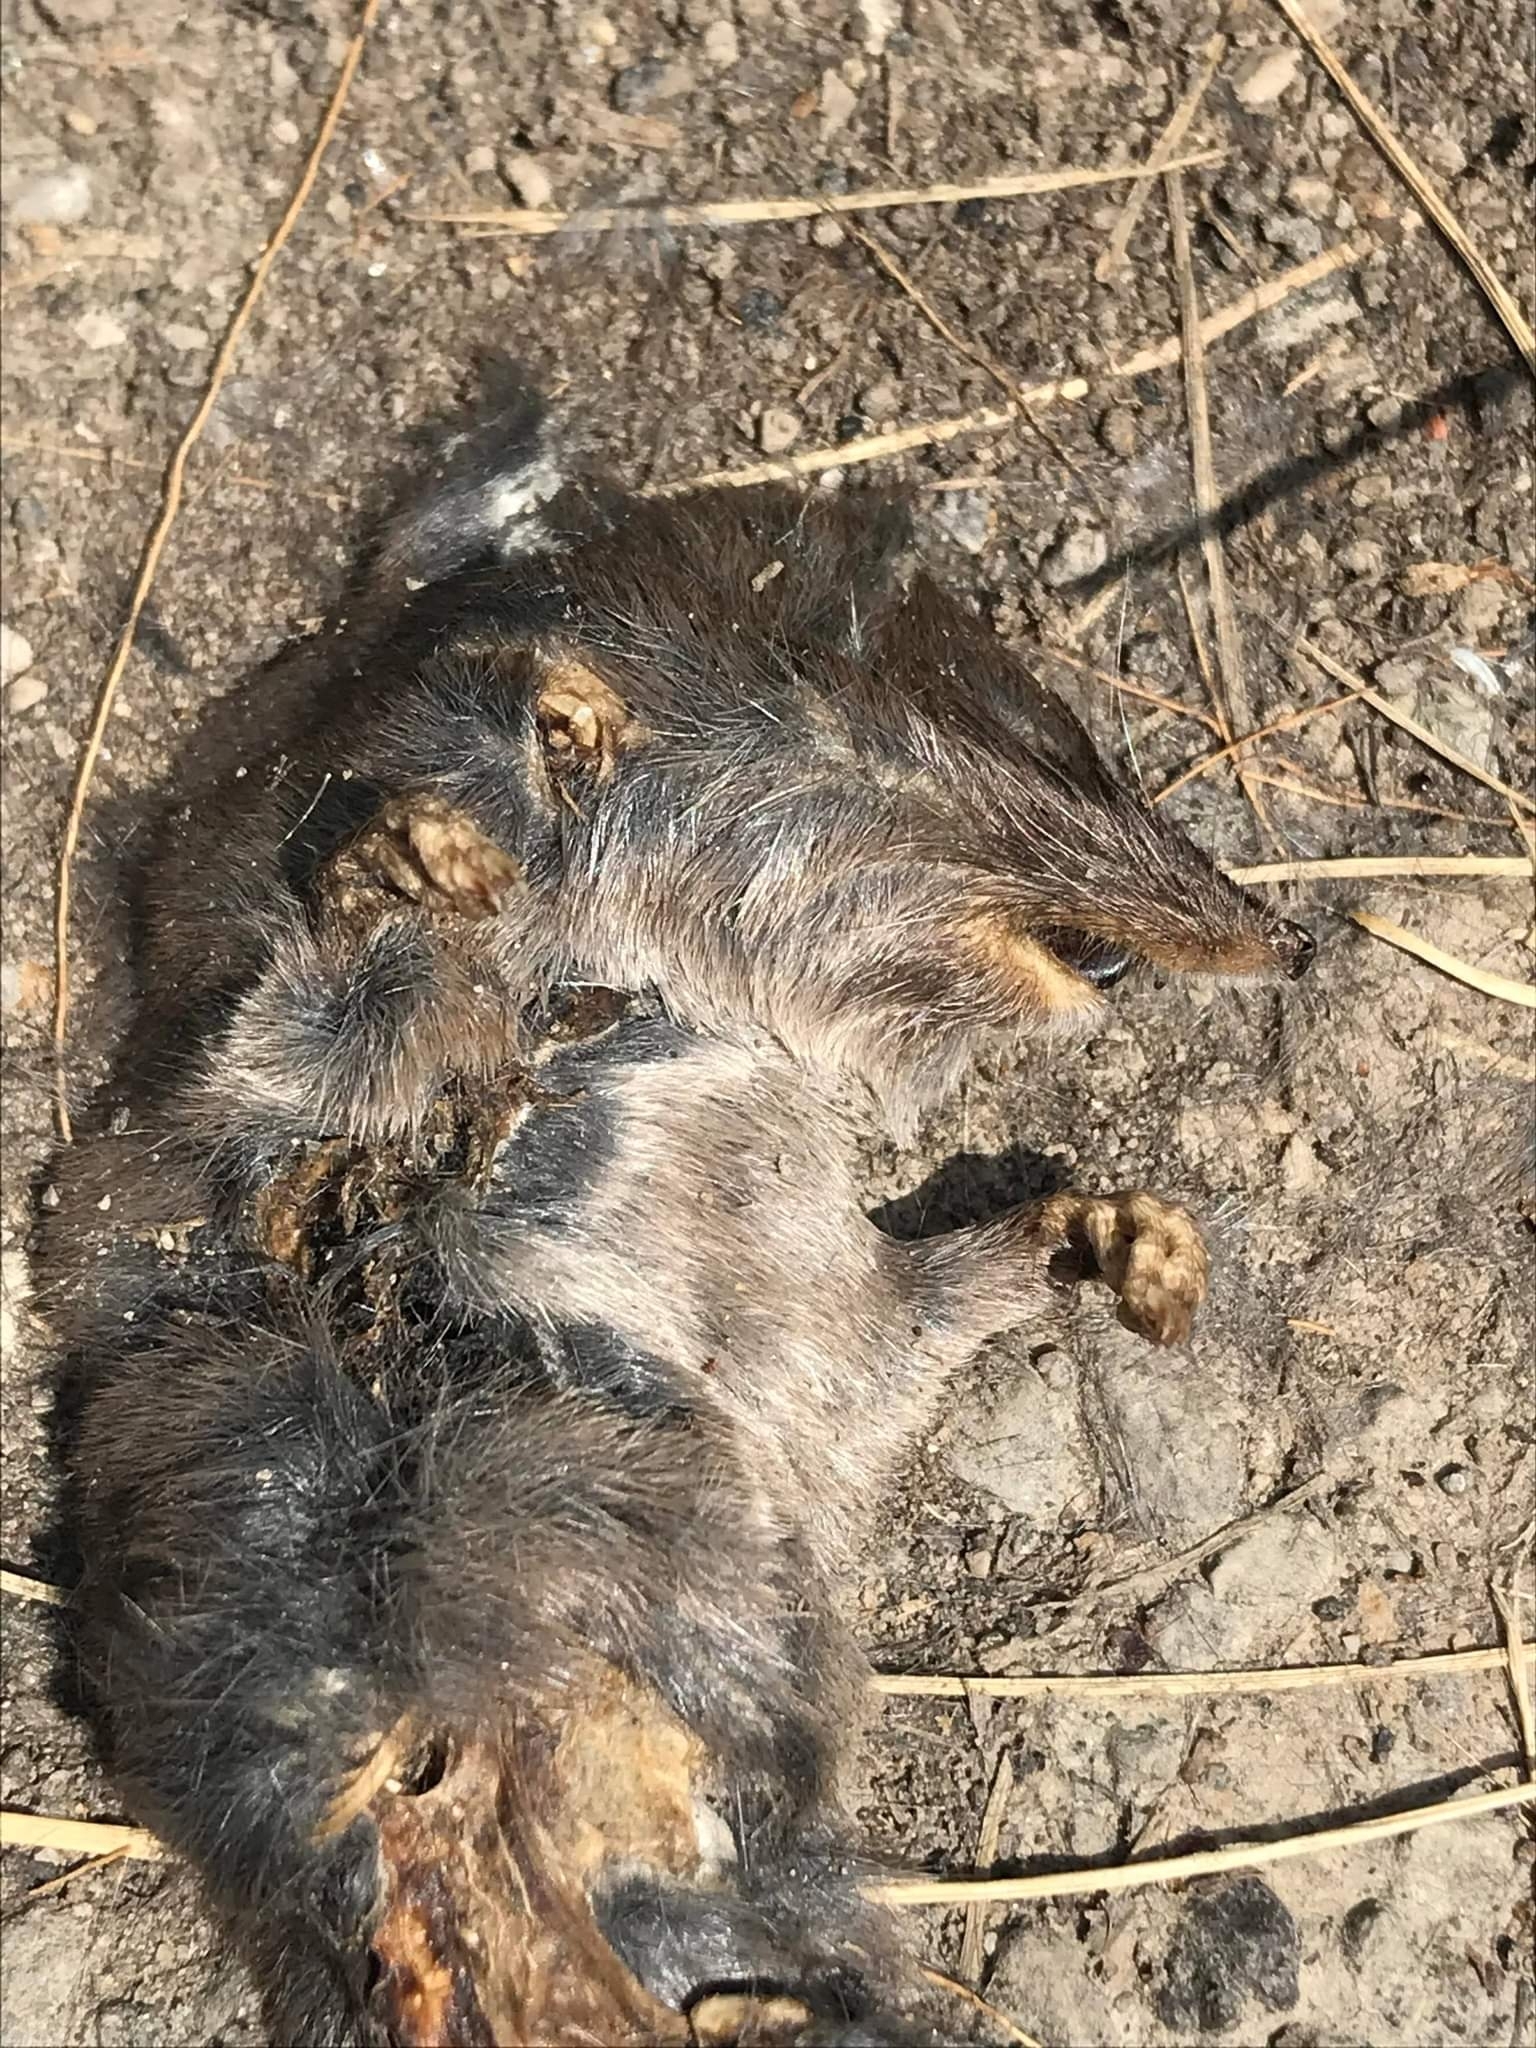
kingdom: Animalia
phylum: Chordata
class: Mammalia
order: Soricomorpha
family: Soricidae
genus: Blarina
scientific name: Blarina brevicauda
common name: Northern short-tailed shrew
